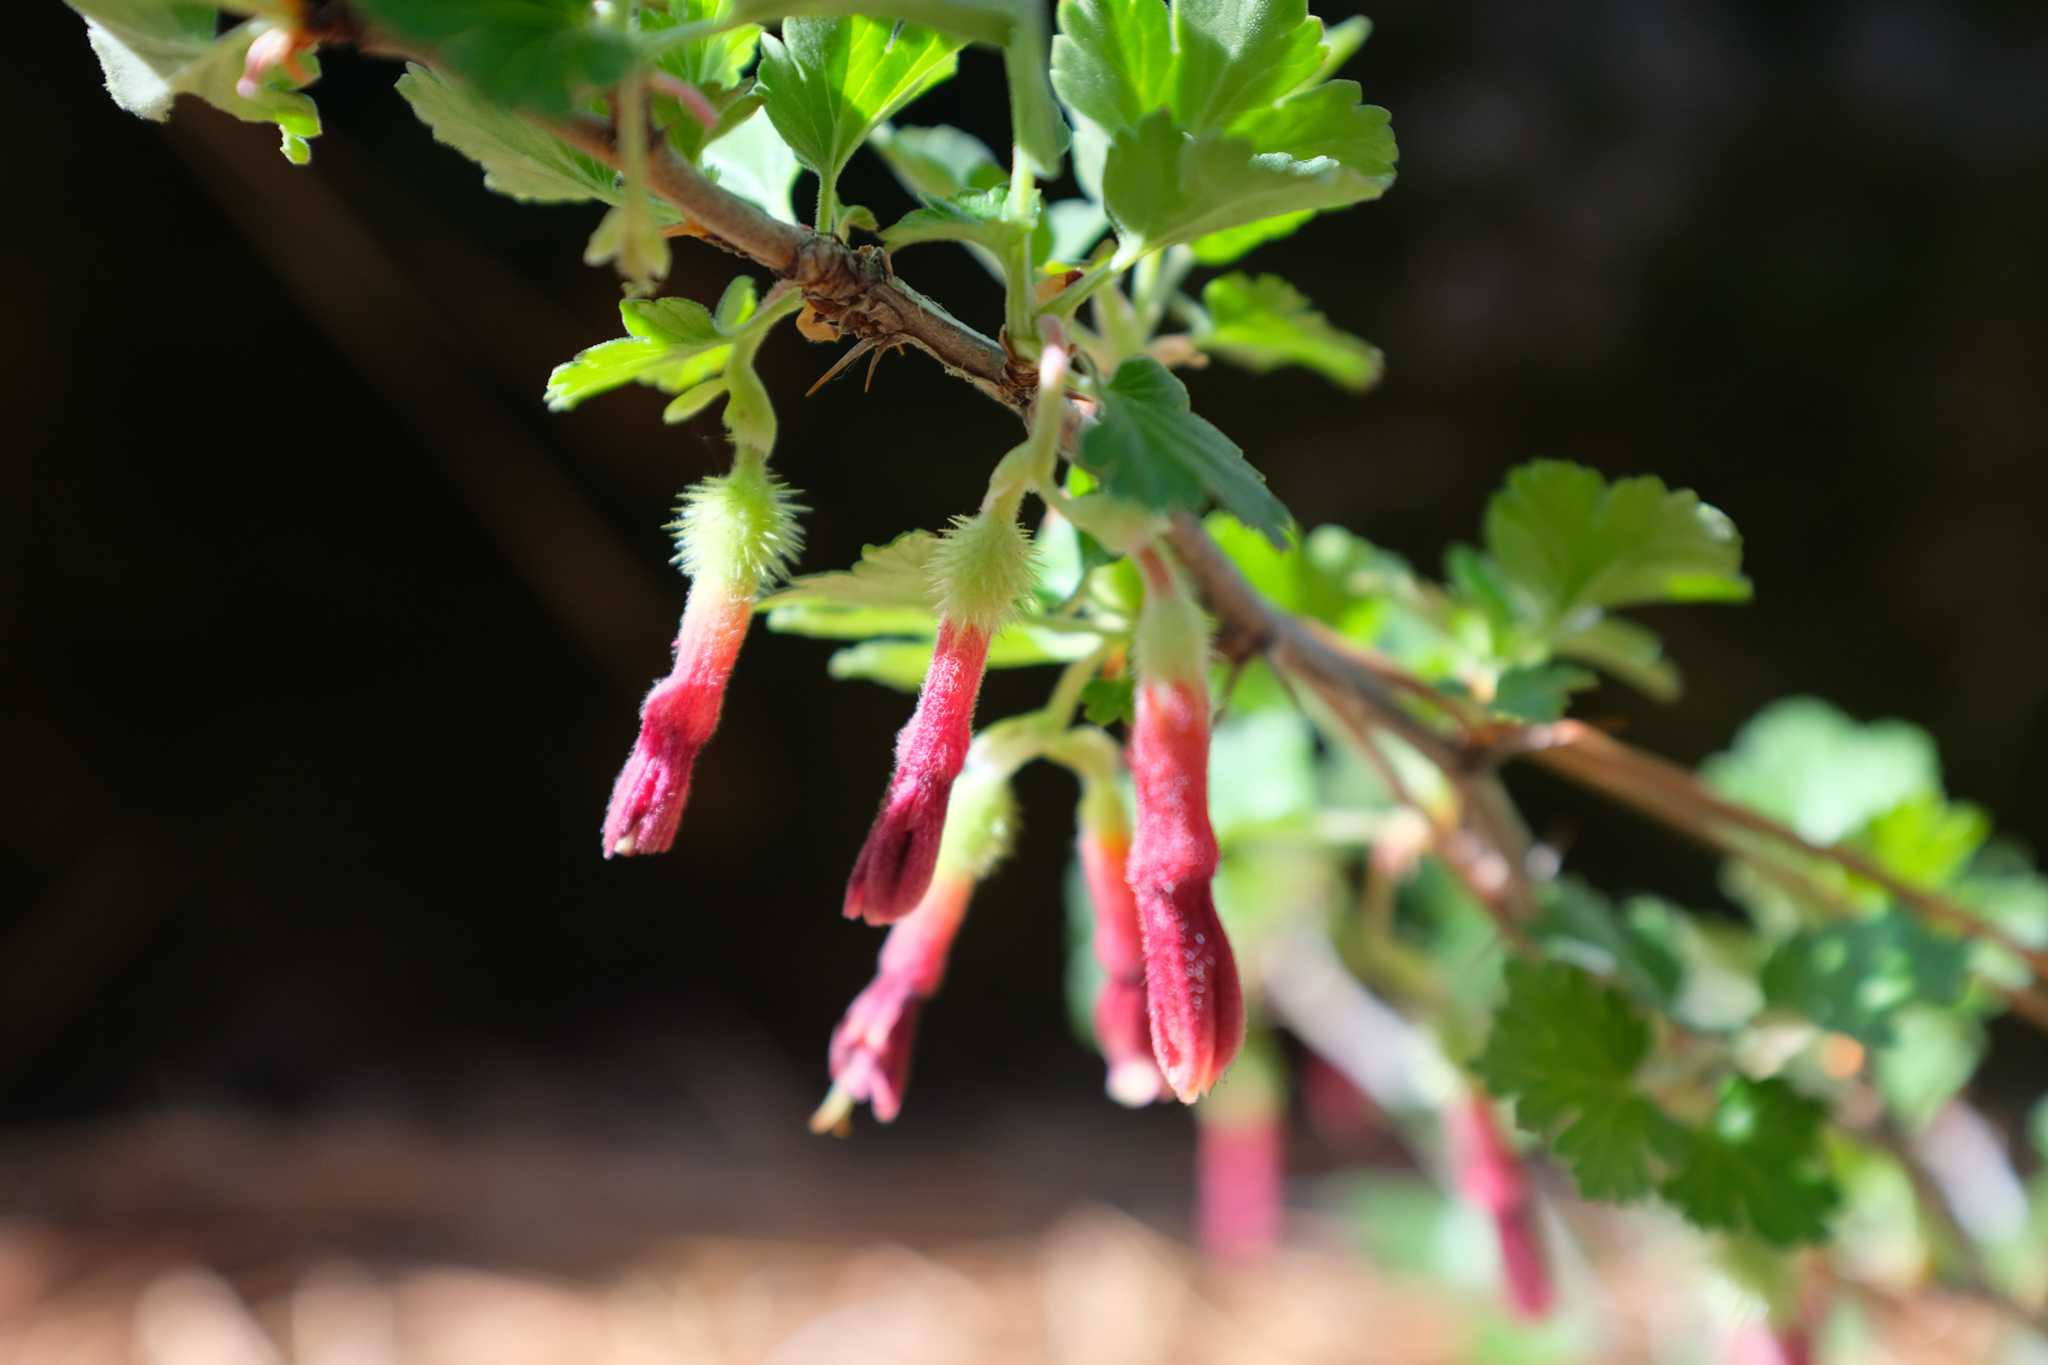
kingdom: Plantae
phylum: Tracheophyta
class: Magnoliopsida
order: Saxifragales
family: Grossulariaceae
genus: Ribes
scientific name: Ribes roezlii
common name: Sierra gooseberry
